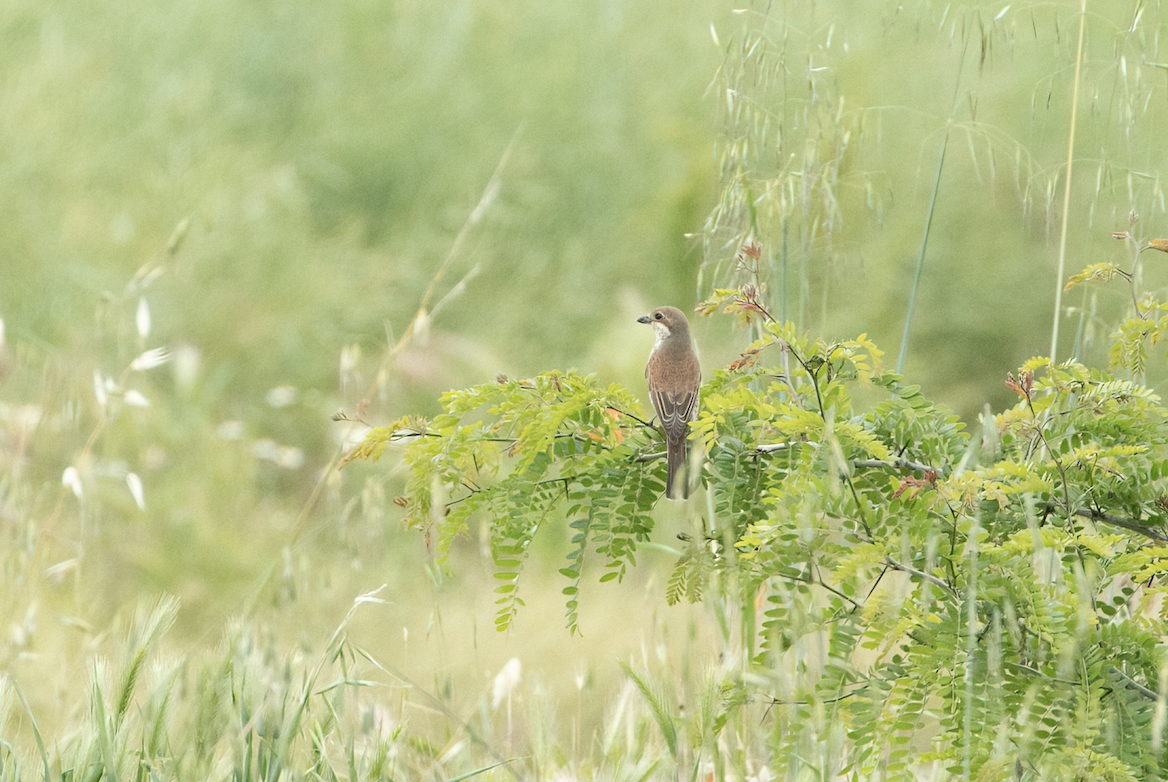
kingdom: Animalia
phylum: Chordata
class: Aves
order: Passeriformes
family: Laniidae
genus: Lanius
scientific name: Lanius collurio
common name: Red-backed shrike
